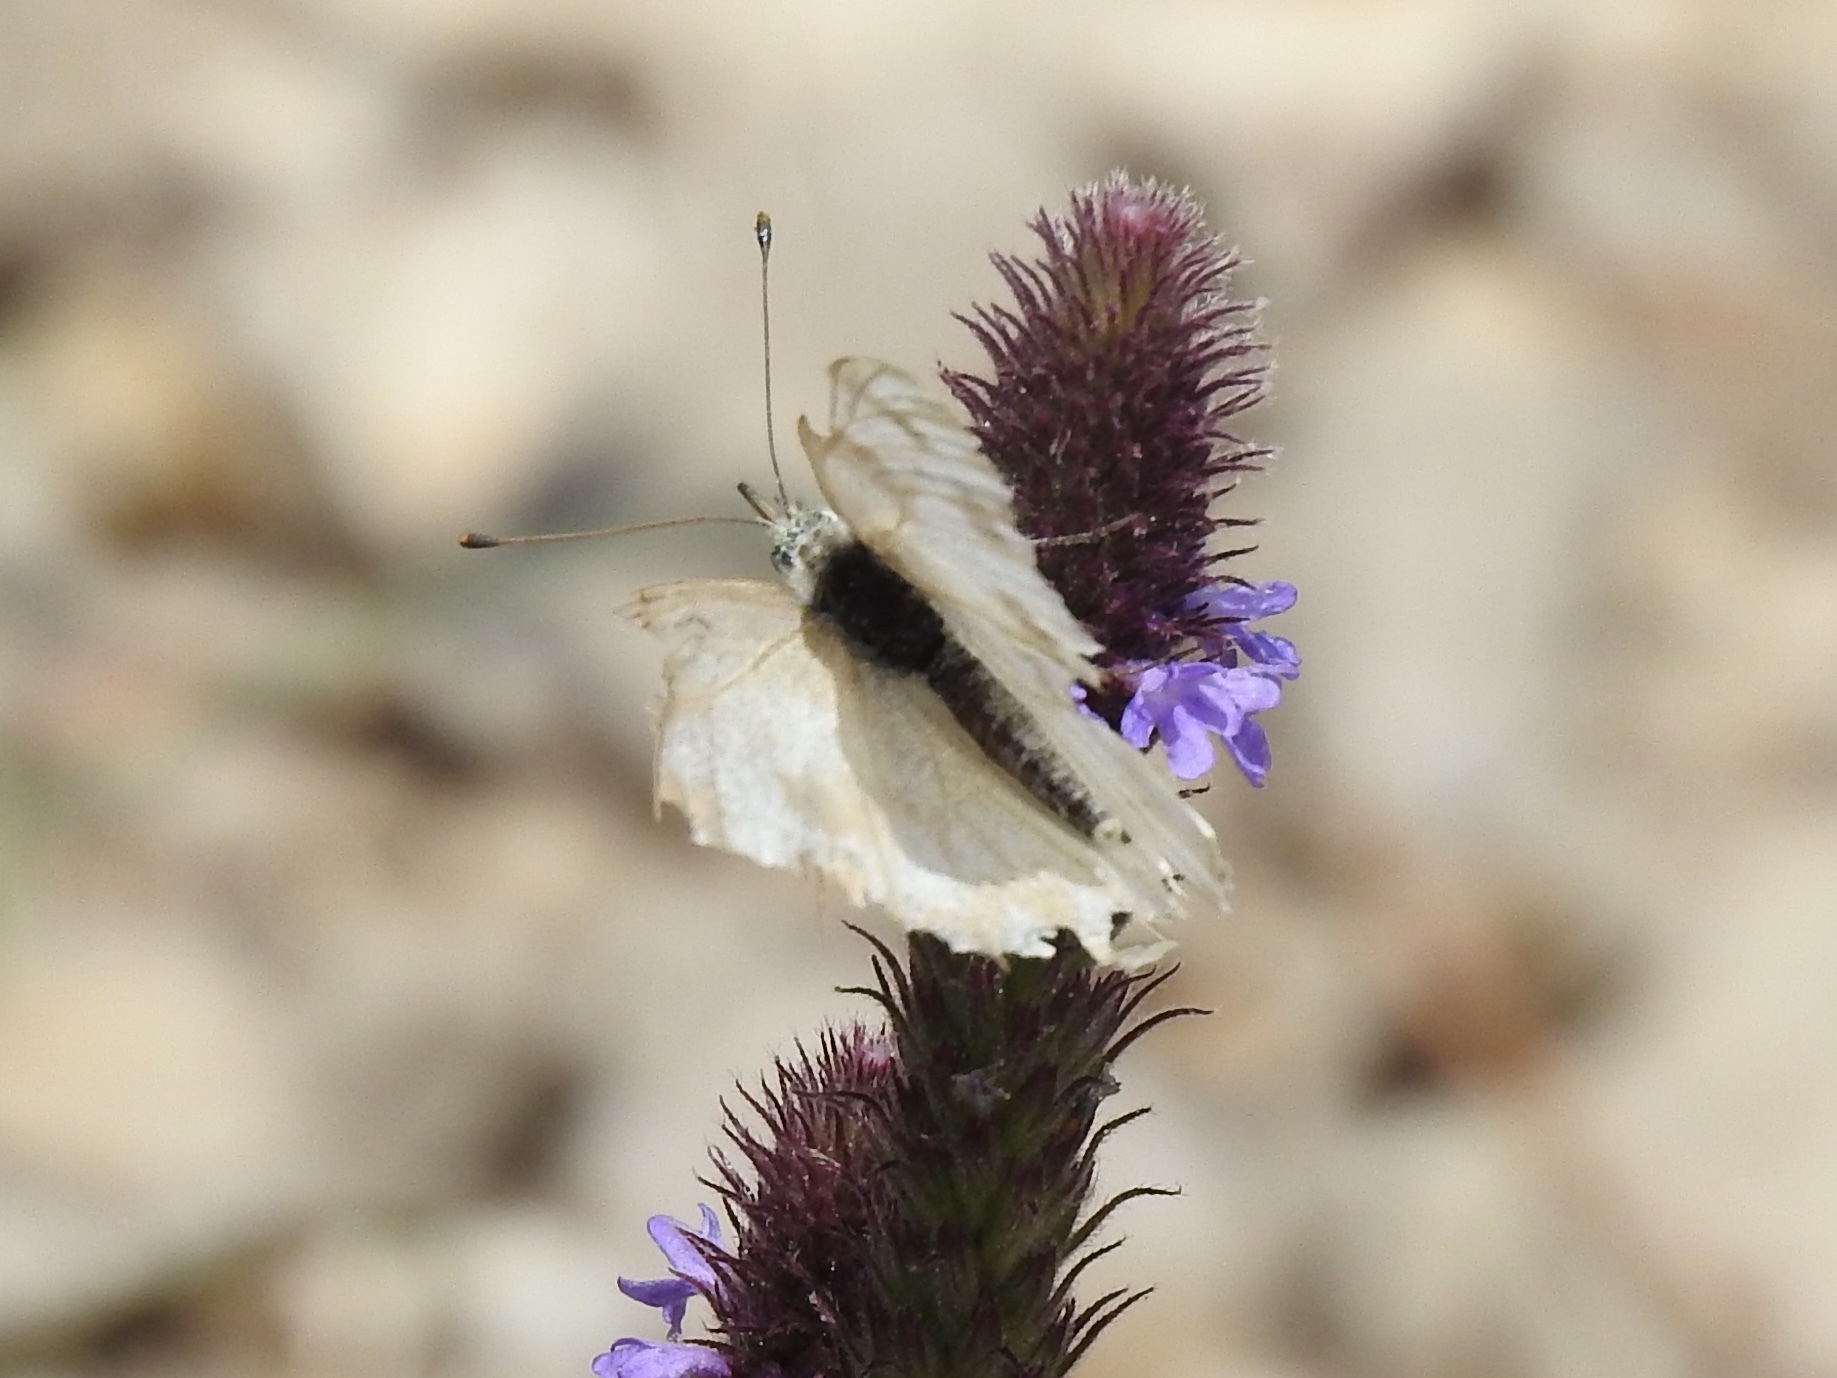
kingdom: Animalia
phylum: Arthropoda
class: Insecta
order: Lepidoptera
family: Pieridae
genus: Pontia
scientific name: Pontia protodice
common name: Checkered white
